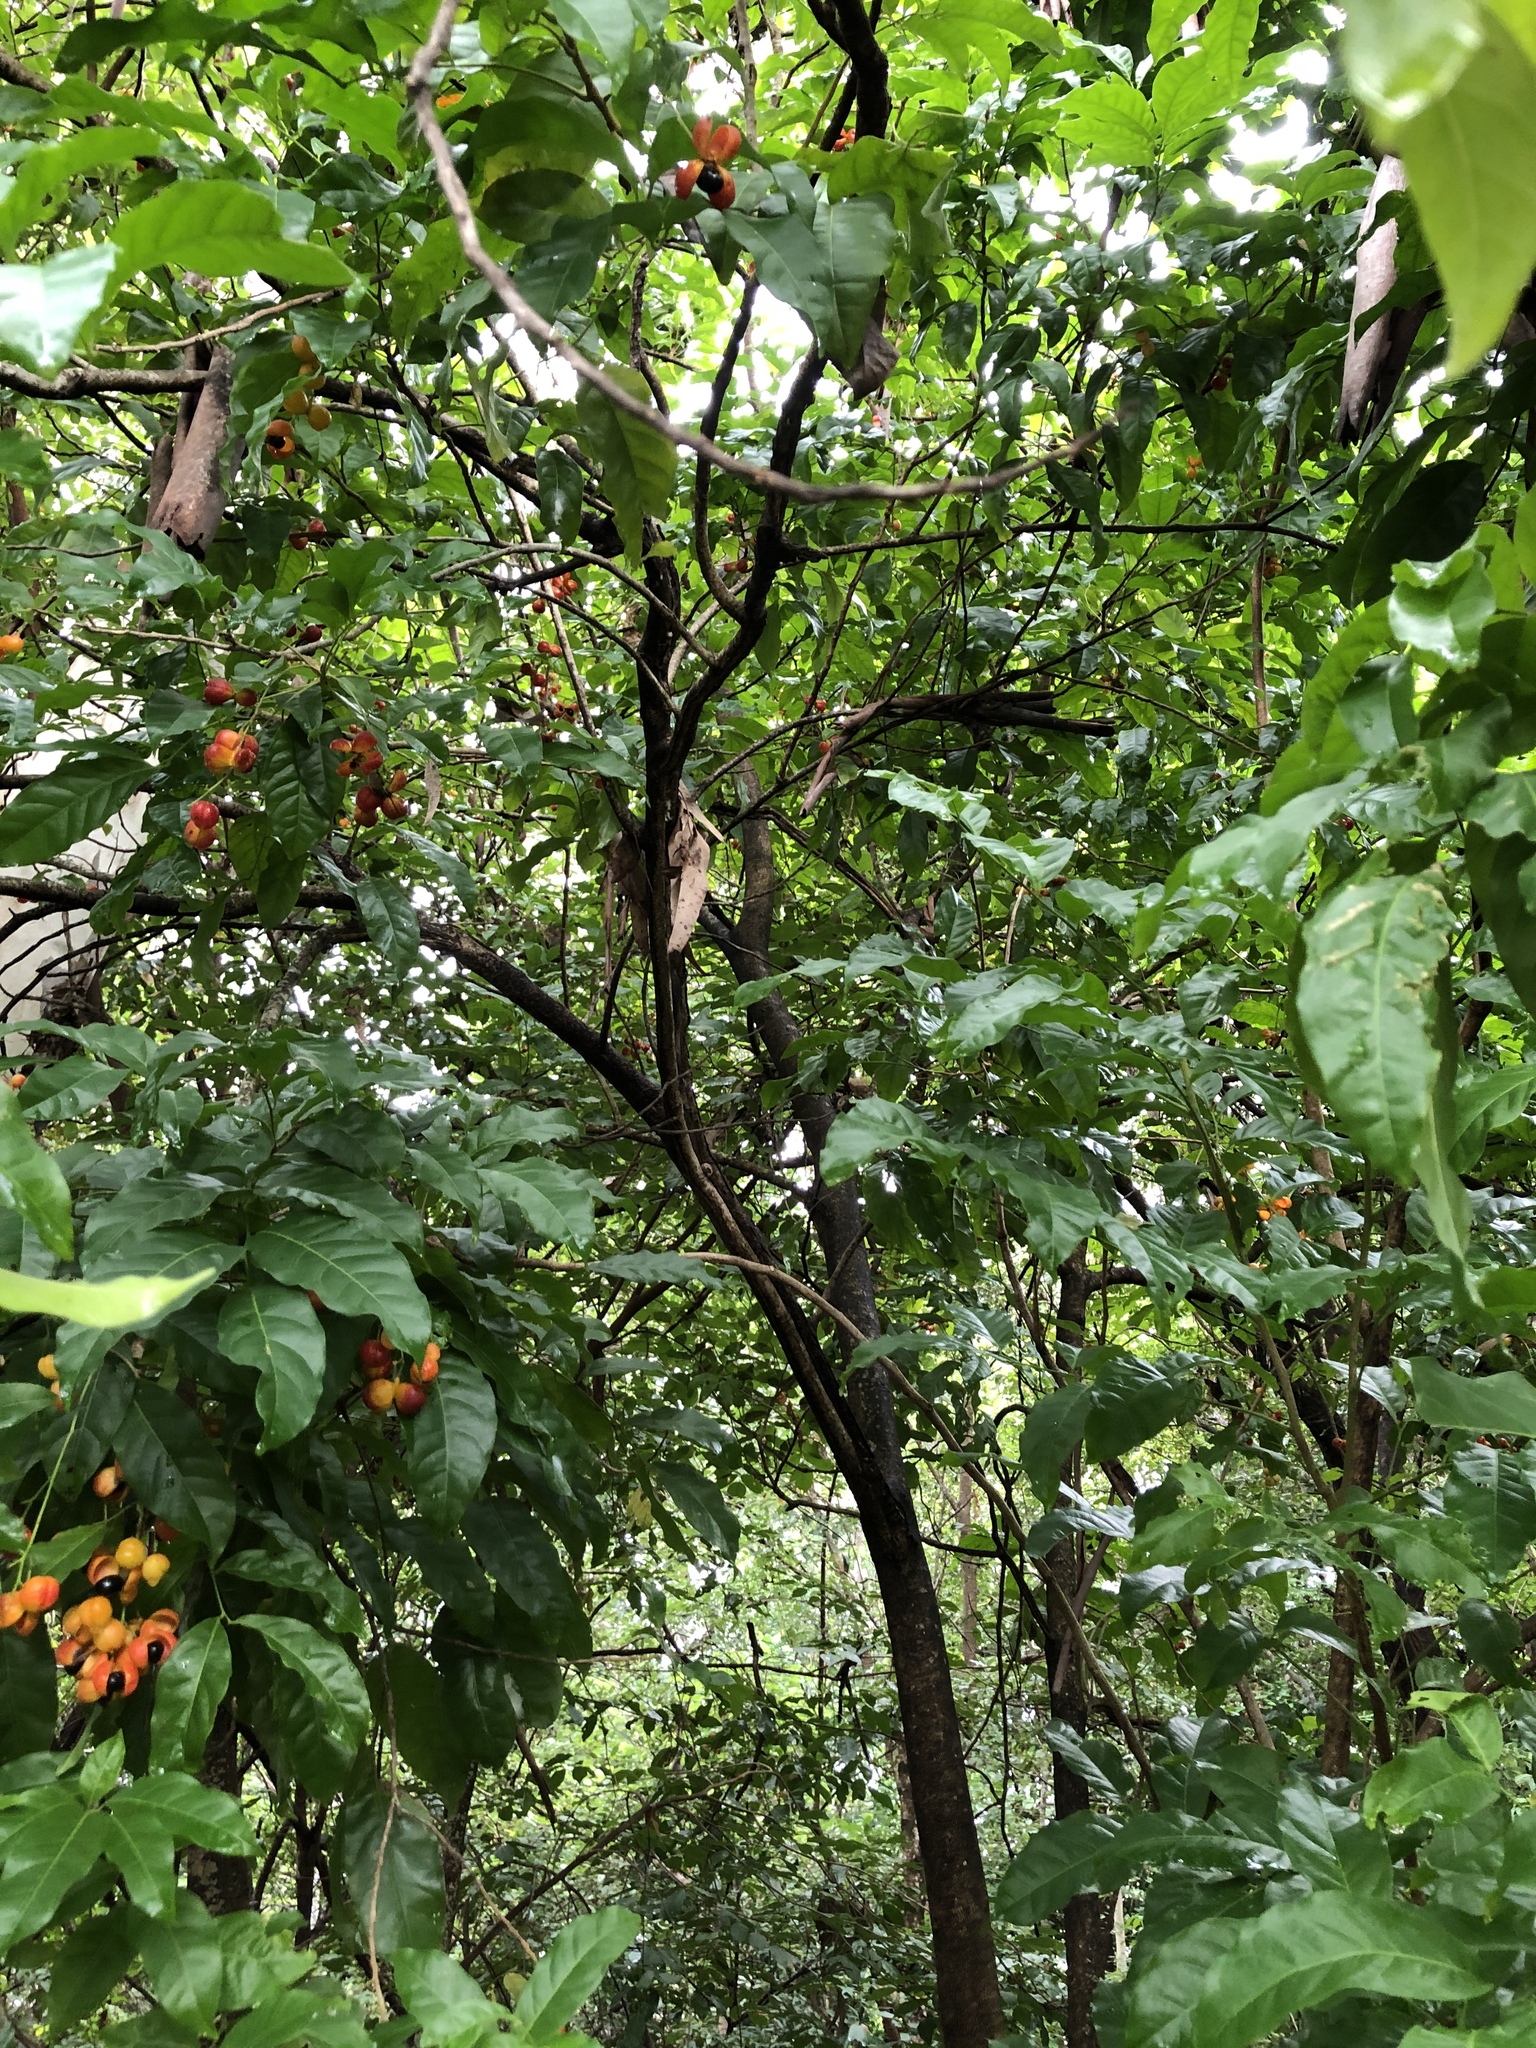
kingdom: Plantae
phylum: Tracheophyta
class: Magnoliopsida
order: Sapindales
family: Sapindaceae
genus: Harpullia
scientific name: Harpullia pendula
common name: Moreton bay tulipwood
